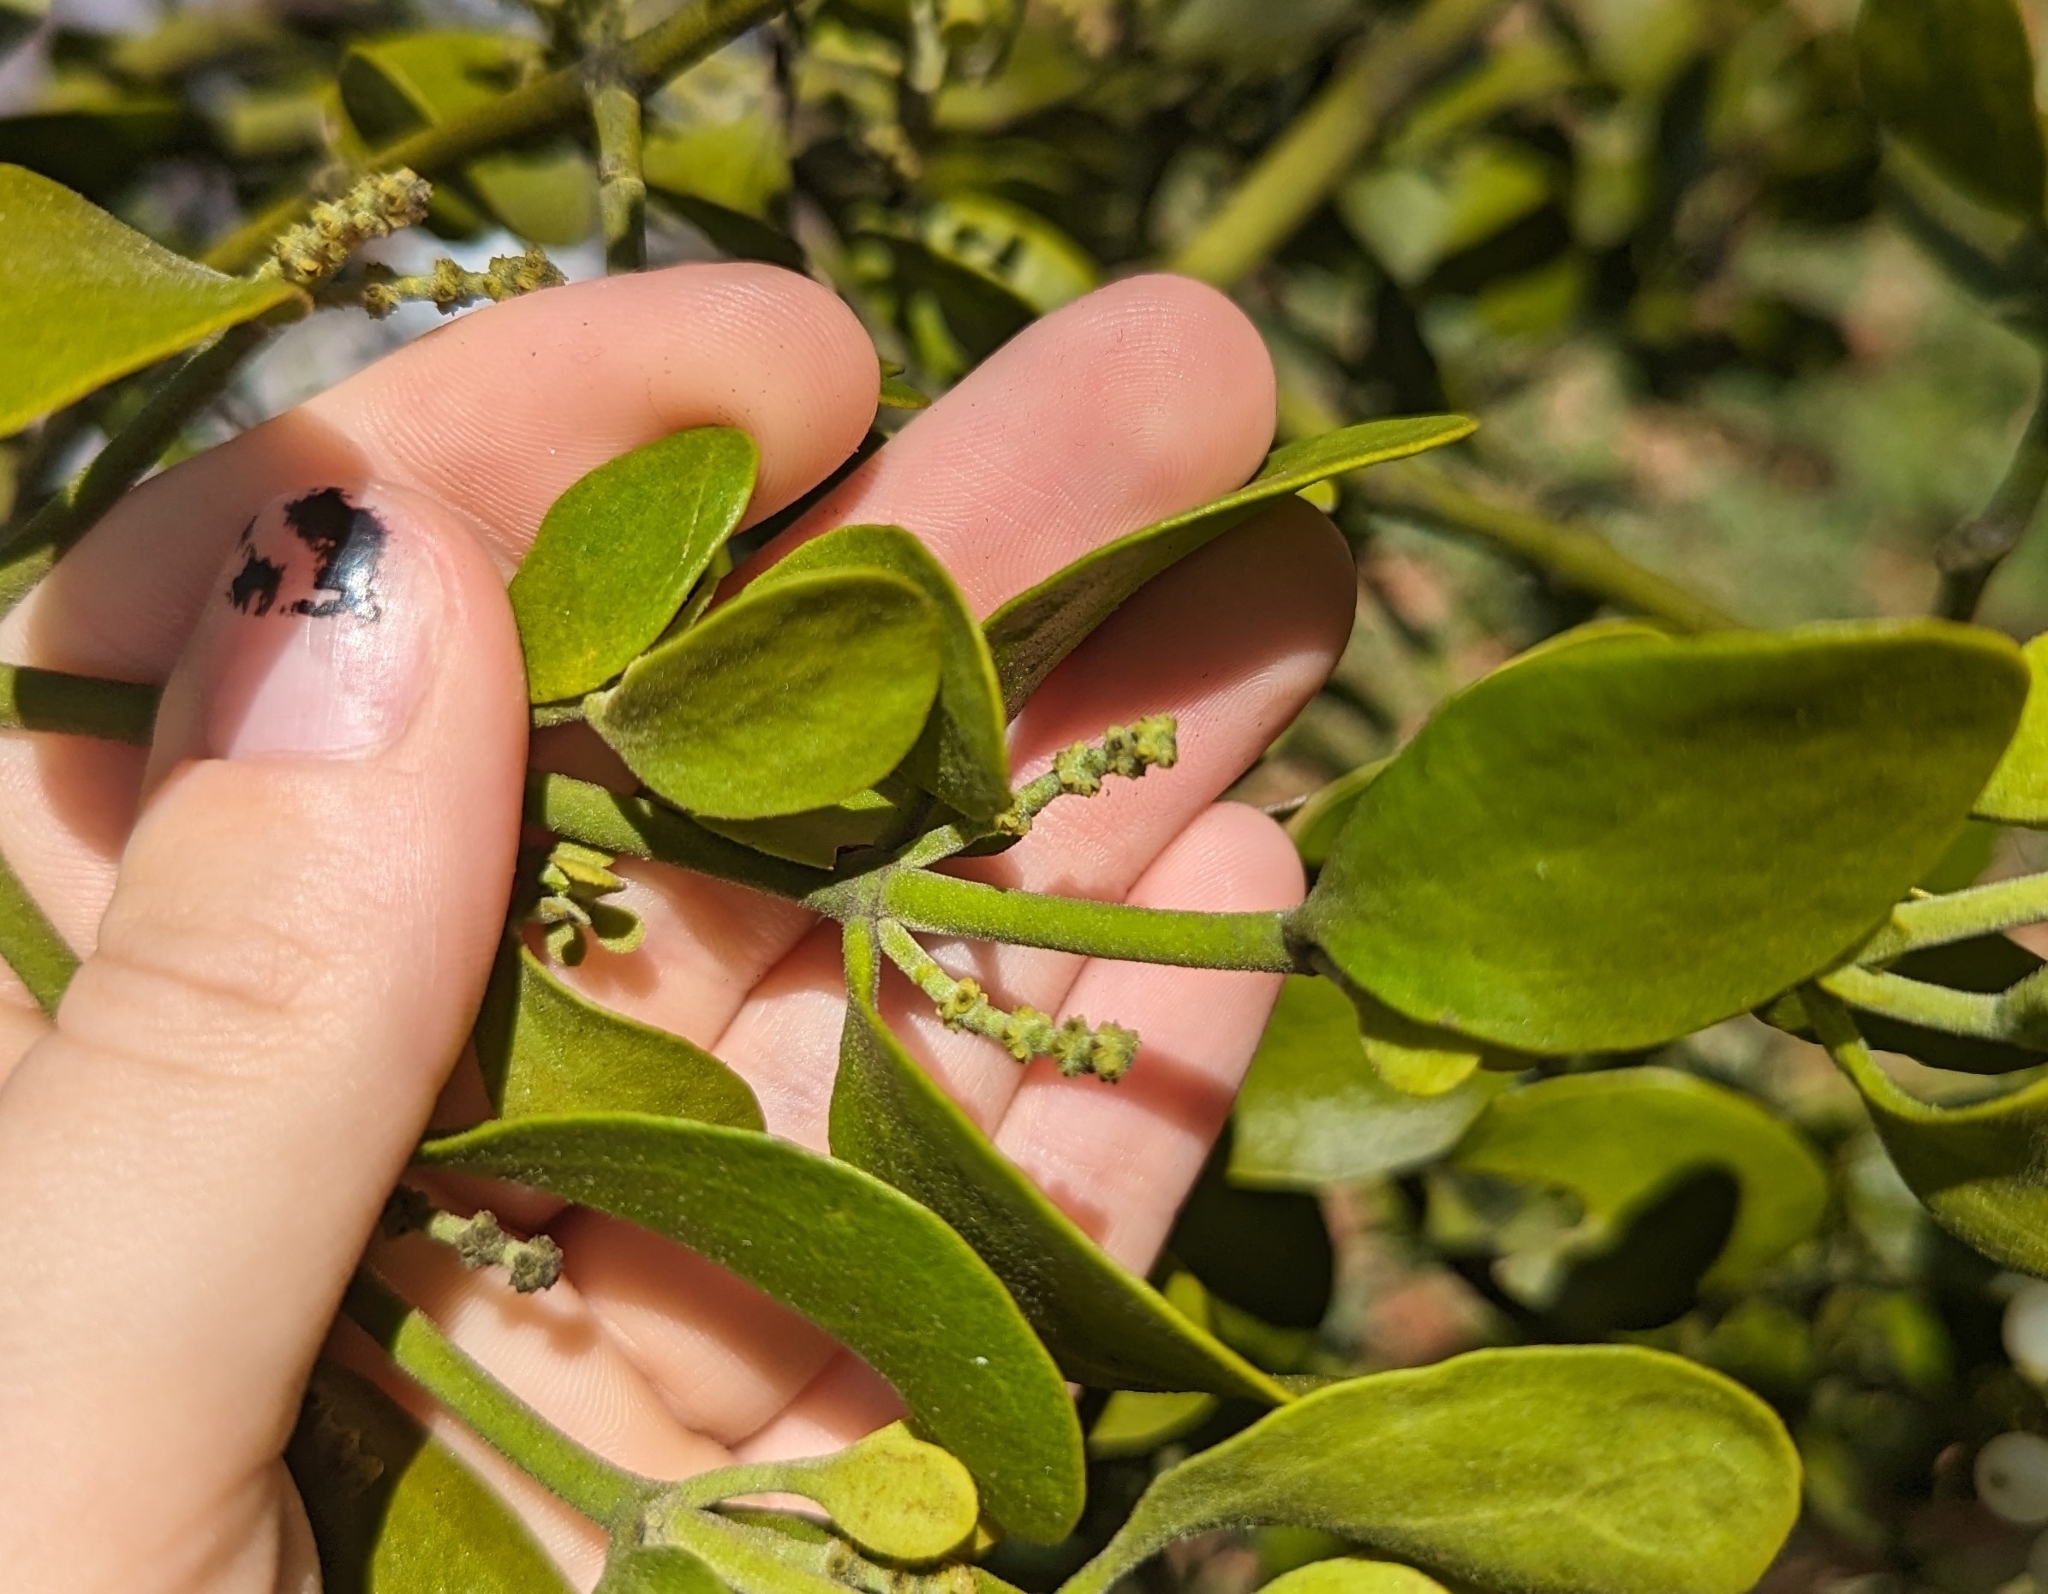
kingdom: Plantae
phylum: Tracheophyta
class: Magnoliopsida
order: Santalales
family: Viscaceae
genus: Phoradendron
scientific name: Phoradendron leucarpum
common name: Pacific mistletoe
